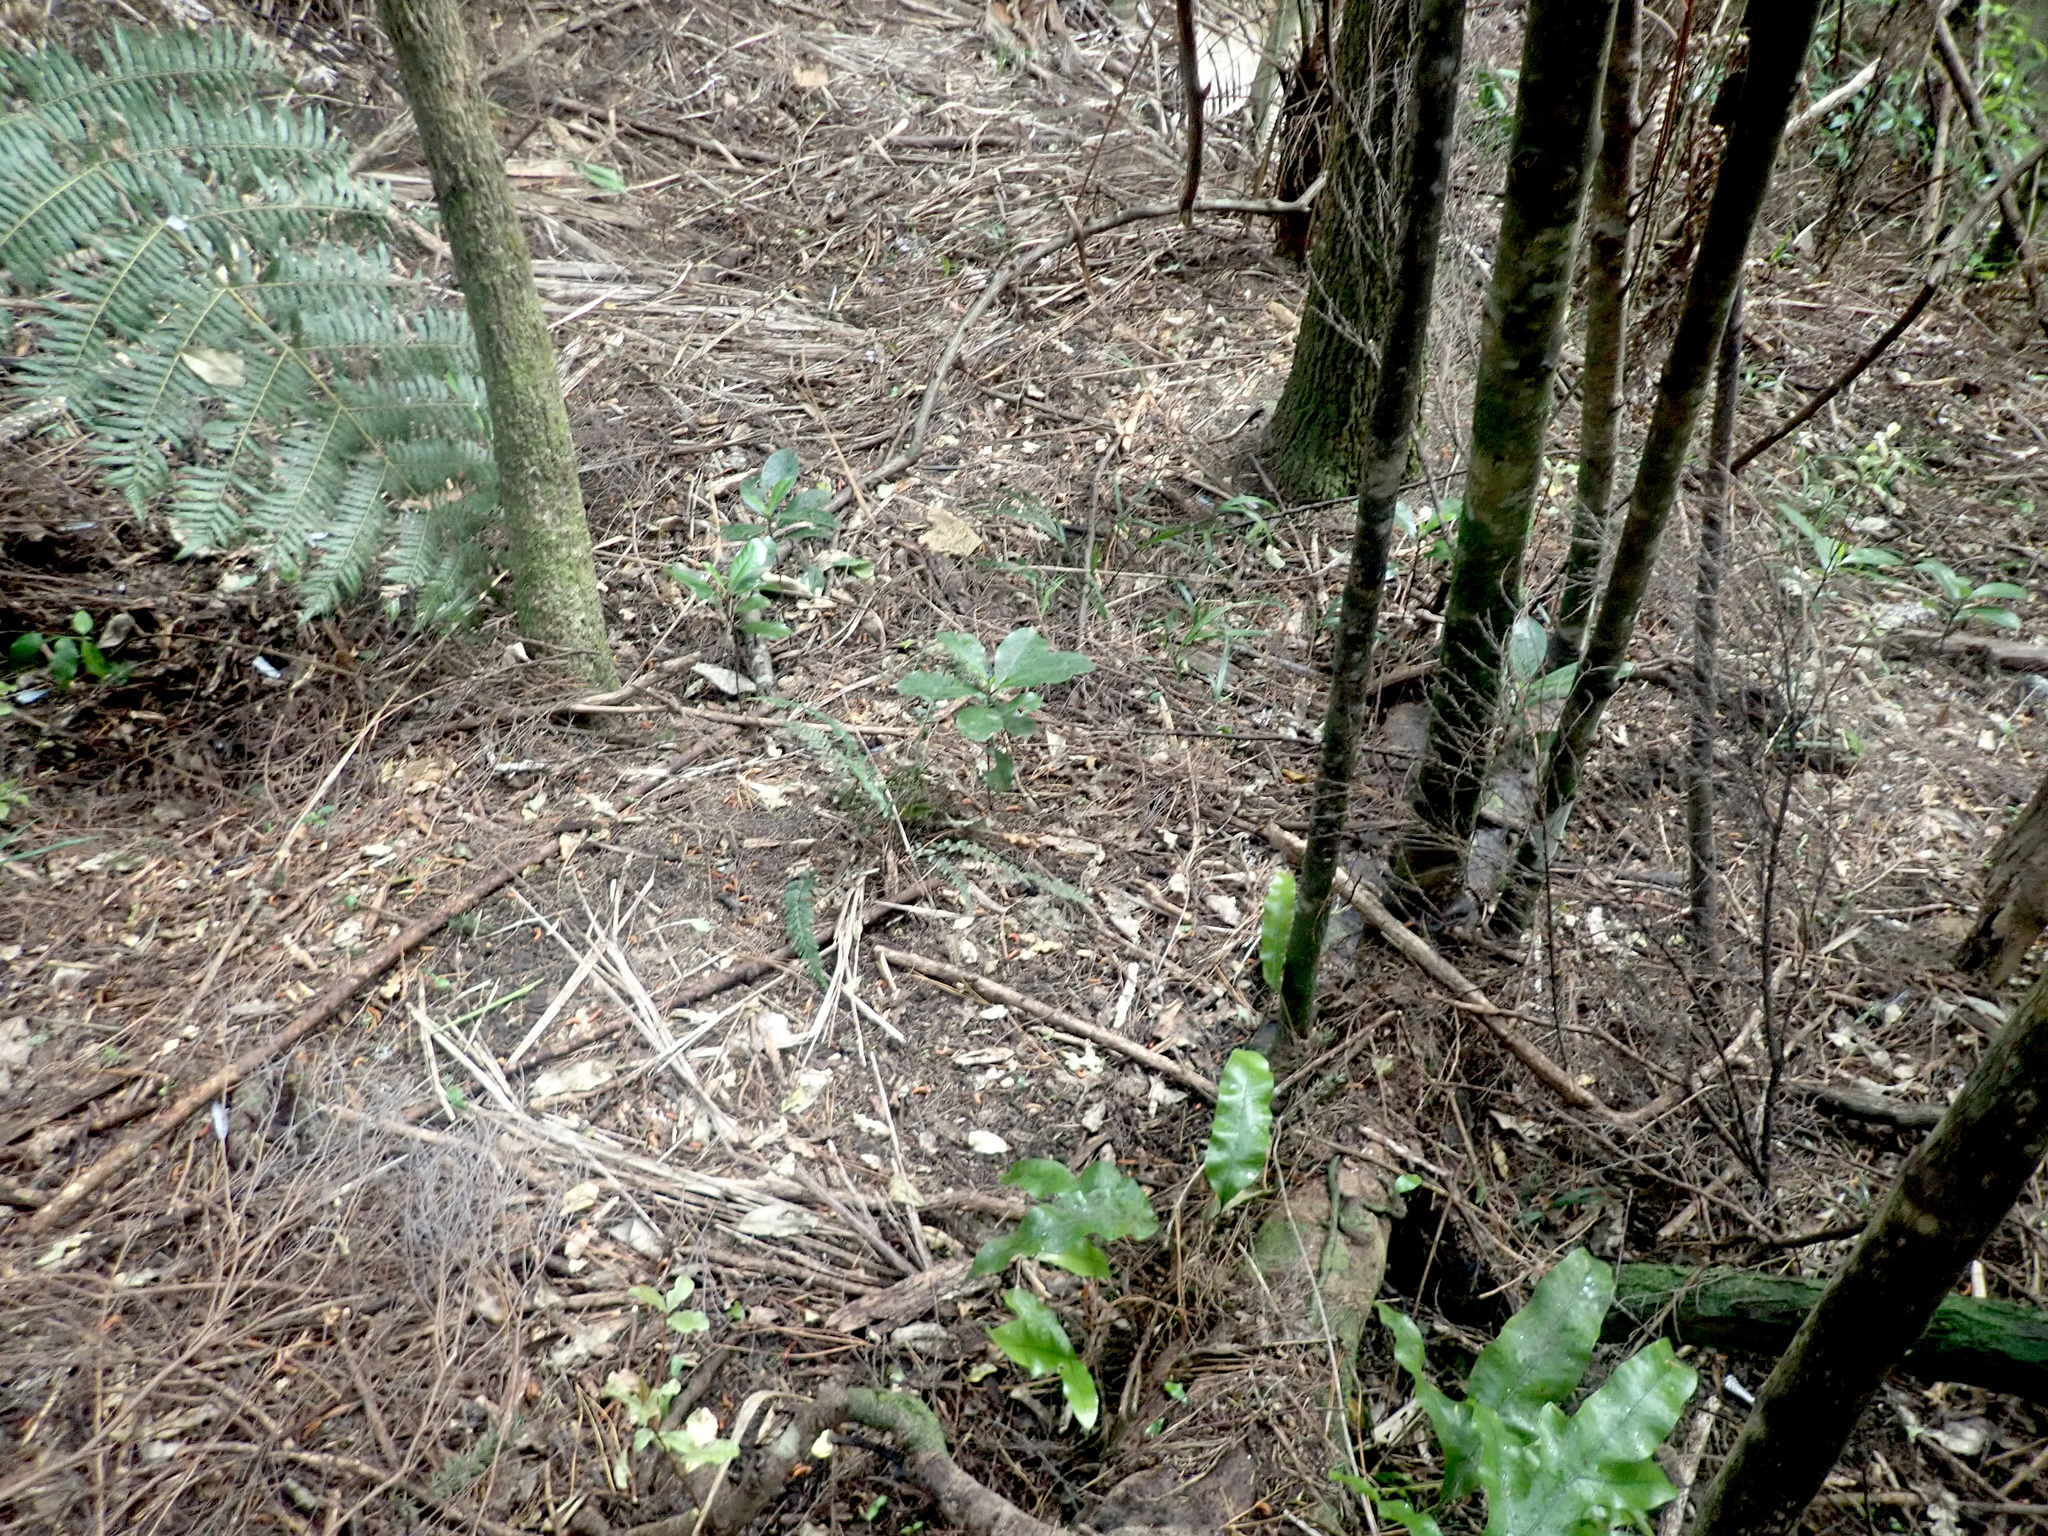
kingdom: Plantae
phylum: Tracheophyta
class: Magnoliopsida
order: Cucurbitales
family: Corynocarpaceae
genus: Corynocarpus
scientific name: Corynocarpus laevigatus
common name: New zealand laurel
